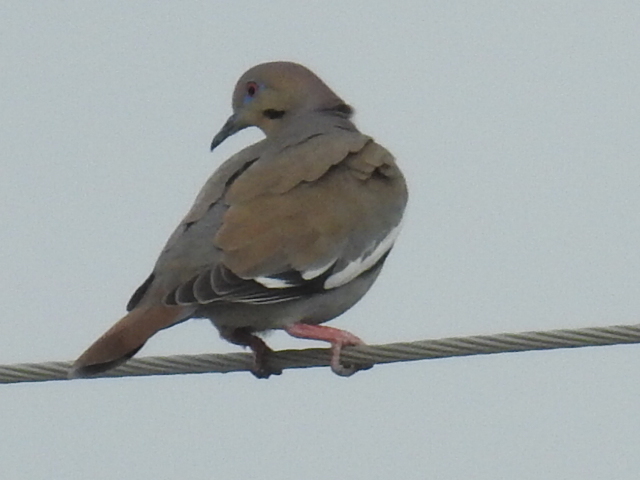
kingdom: Animalia
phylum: Chordata
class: Aves
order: Columbiformes
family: Columbidae
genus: Zenaida
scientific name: Zenaida asiatica
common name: White-winged dove
